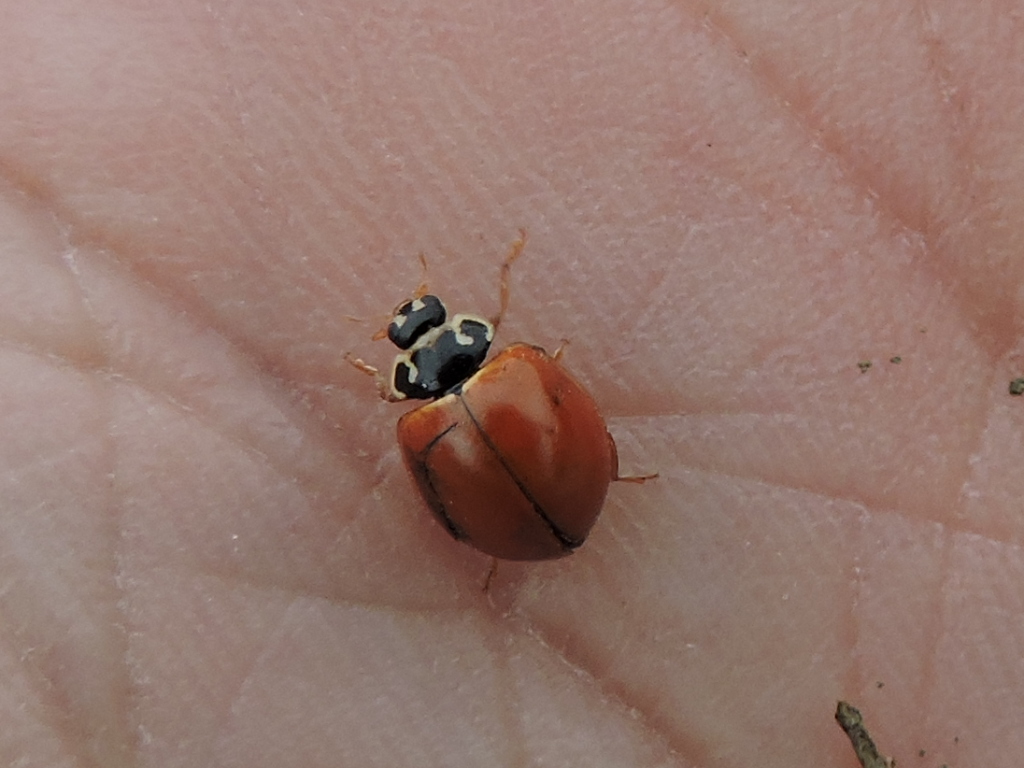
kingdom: Animalia
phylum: Arthropoda
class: Insecta
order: Coleoptera
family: Coccinellidae
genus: Cycloneda
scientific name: Cycloneda munda
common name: Polished lady beetle
